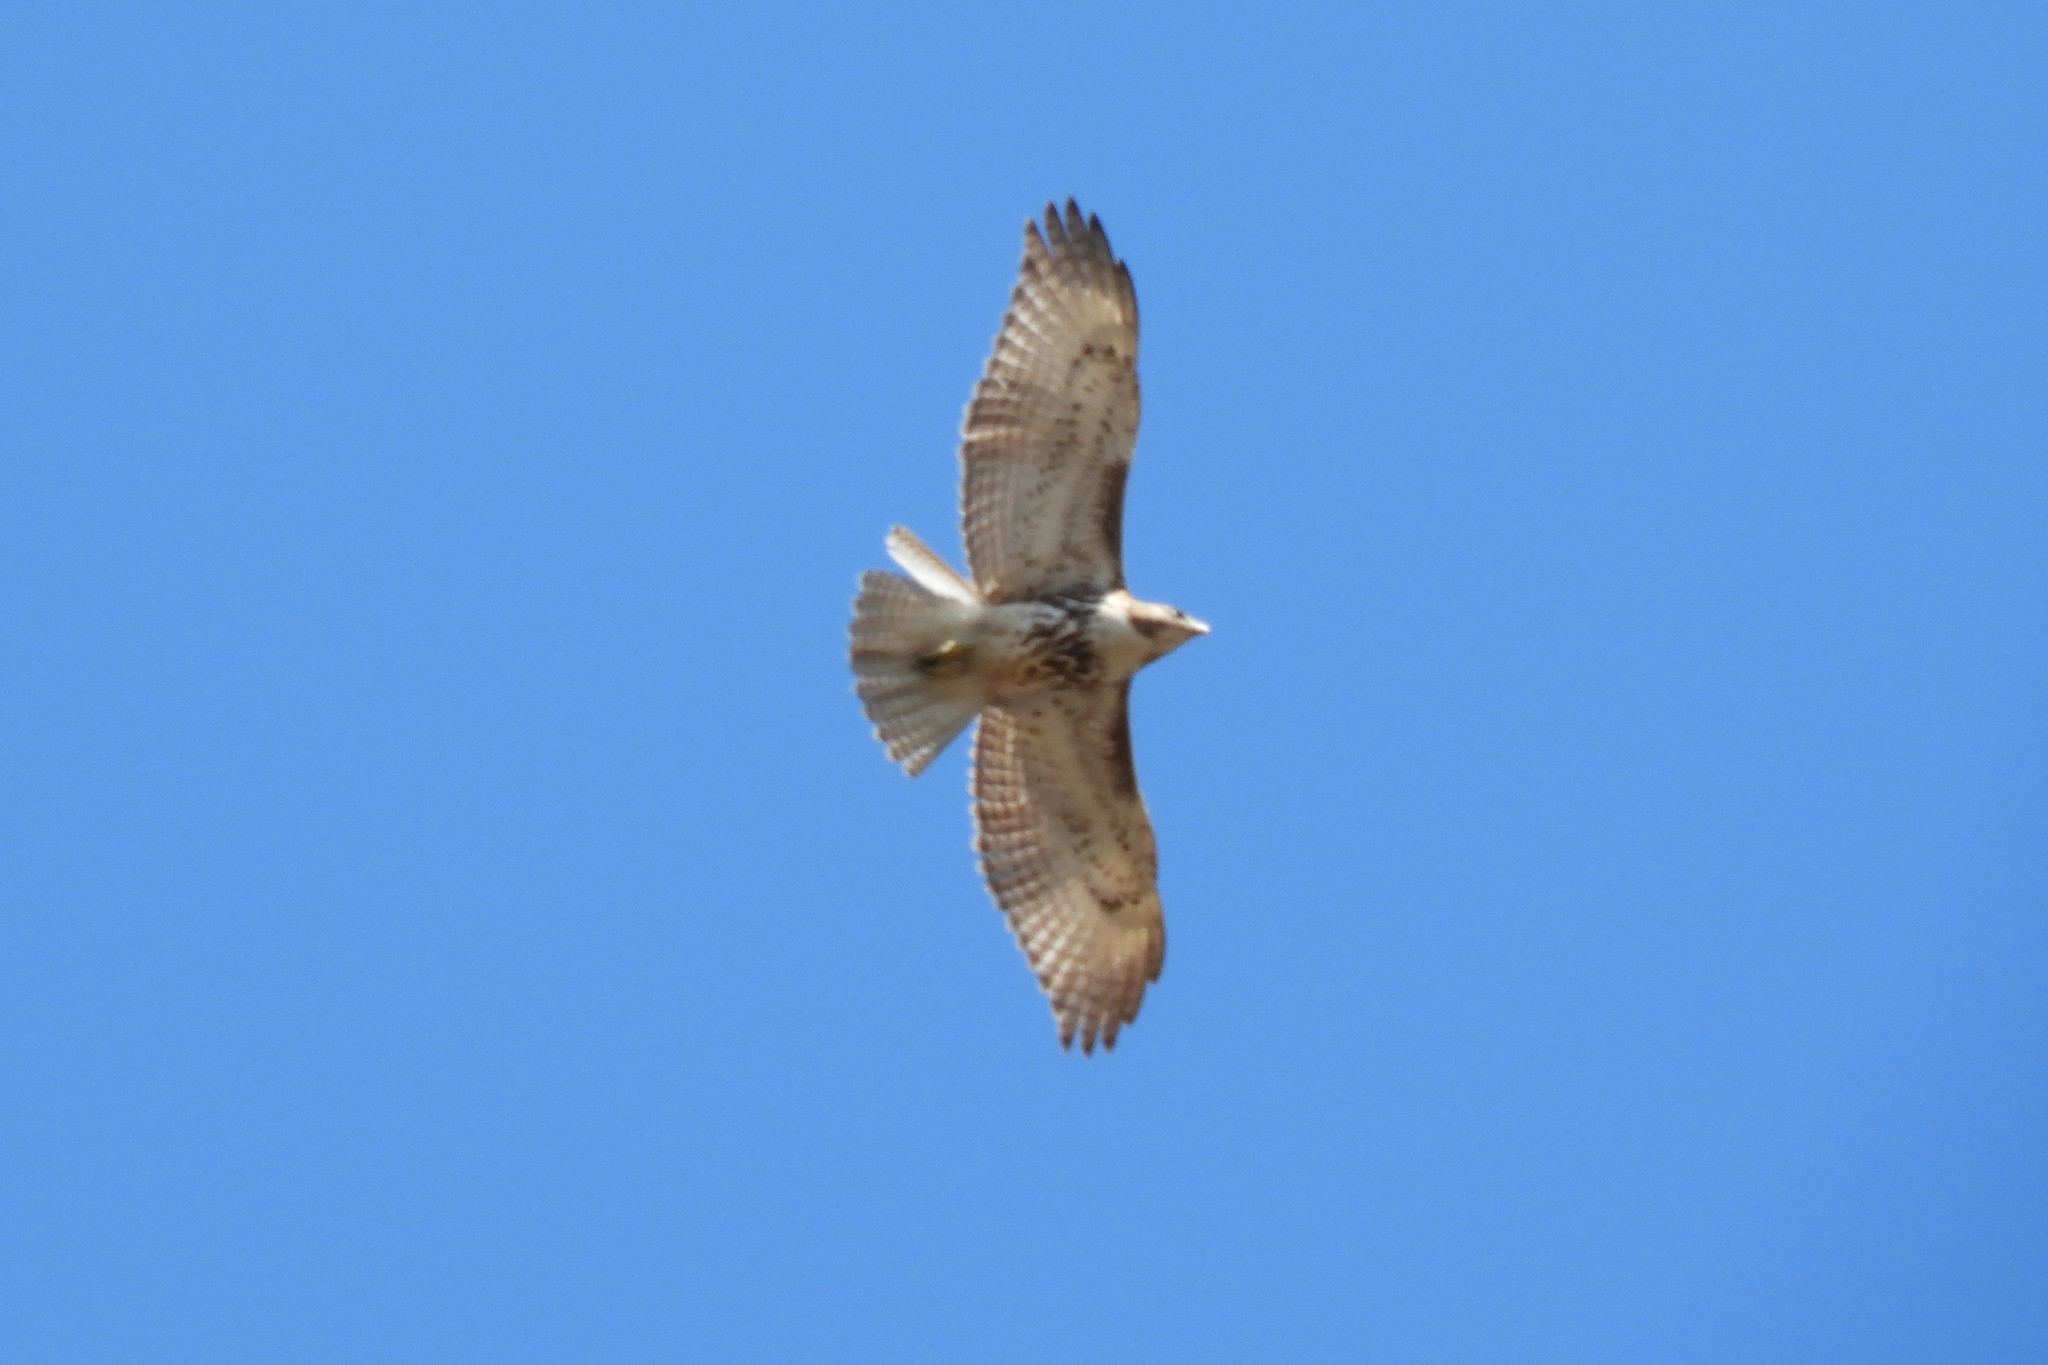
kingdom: Animalia
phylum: Chordata
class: Aves
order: Accipitriformes
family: Accipitridae
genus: Buteo
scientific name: Buteo jamaicensis
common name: Red-tailed hawk
